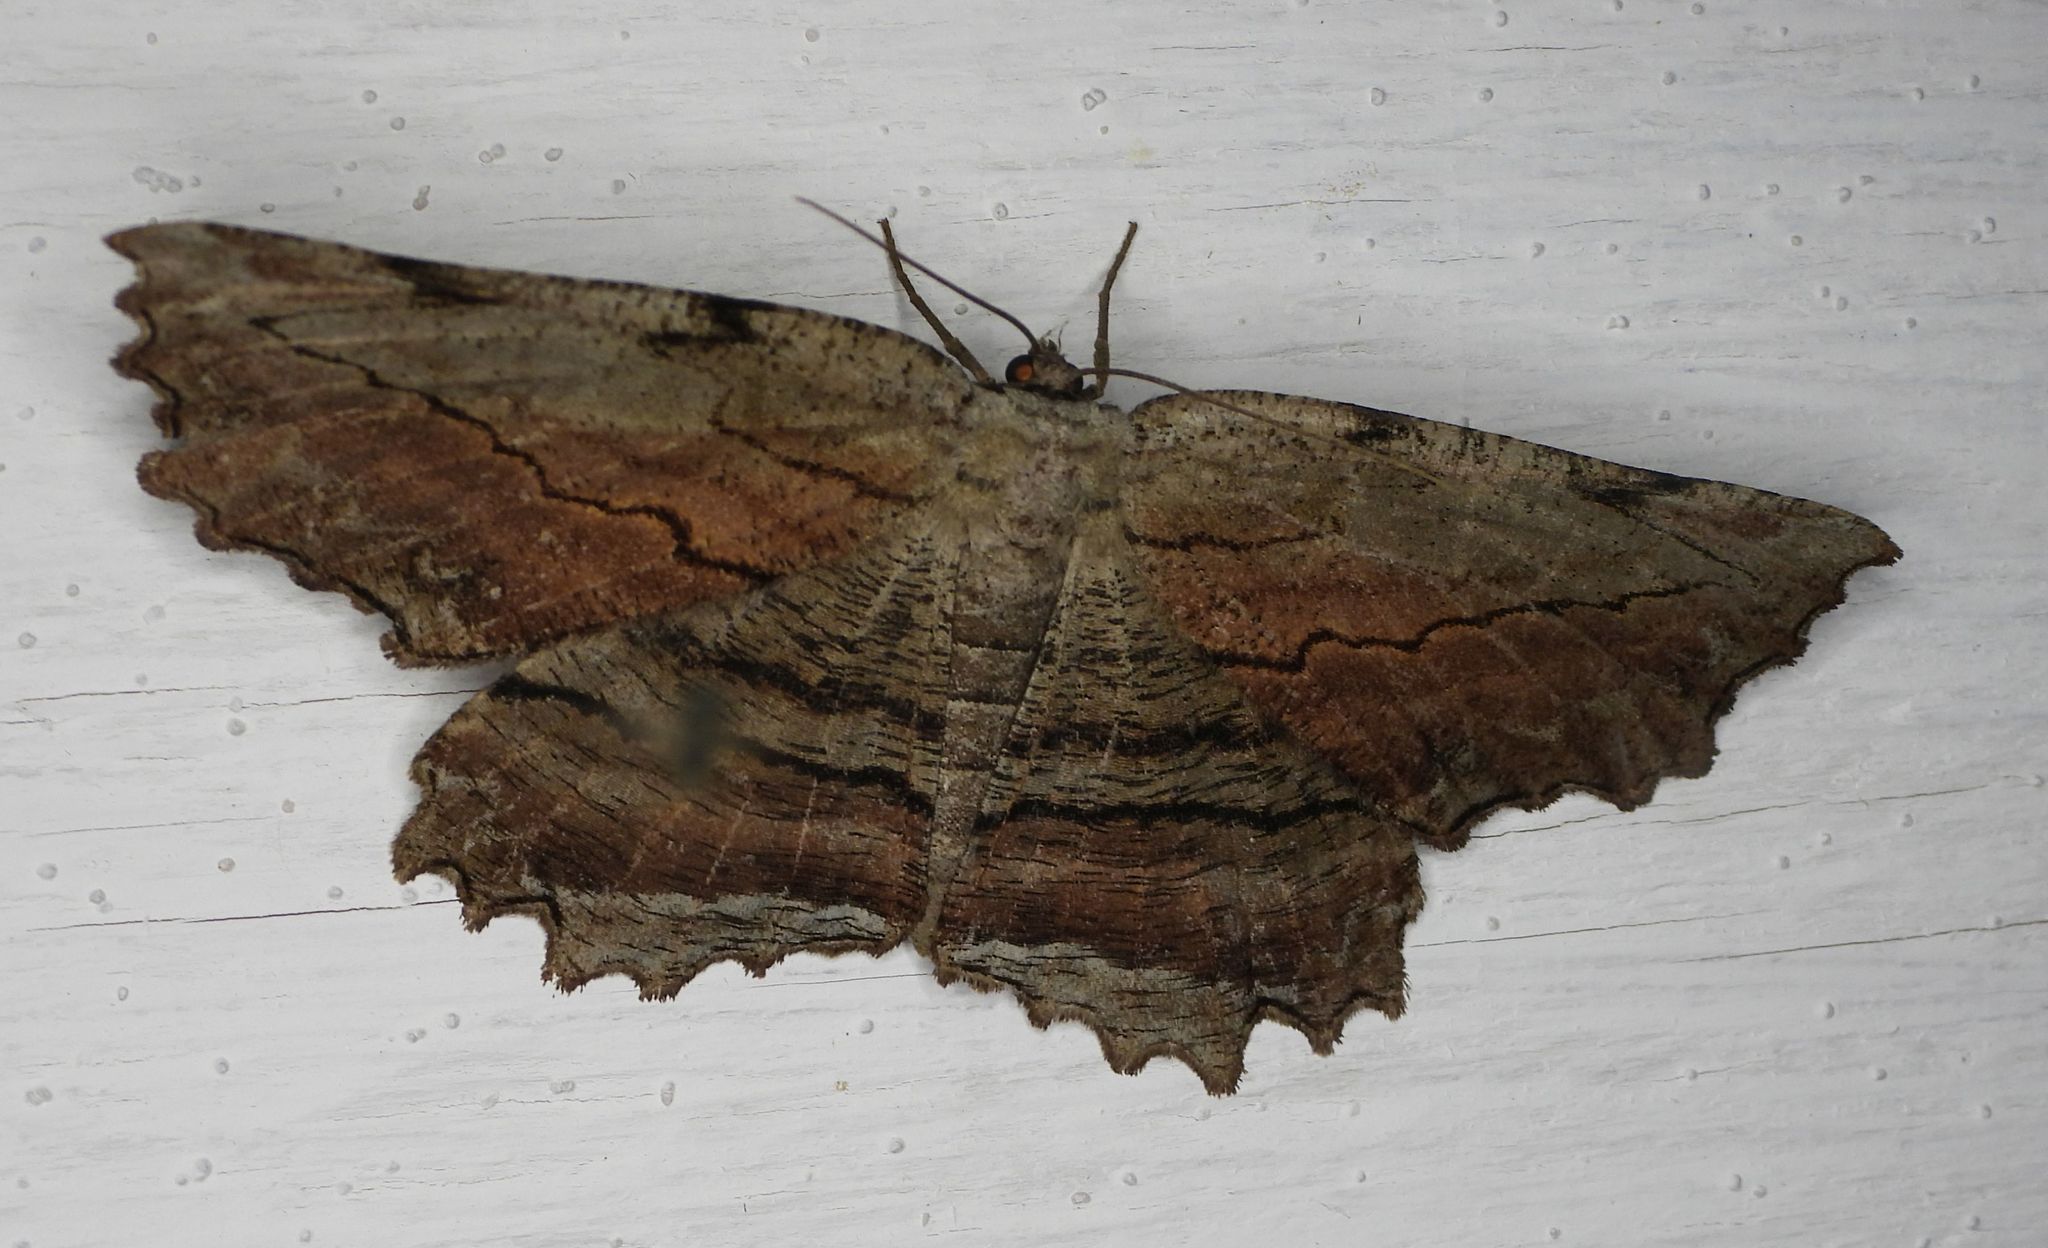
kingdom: Animalia
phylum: Arthropoda
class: Insecta
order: Lepidoptera
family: Geometridae
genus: Lytrosis
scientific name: Lytrosis unitaria
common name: Common lytrosis
